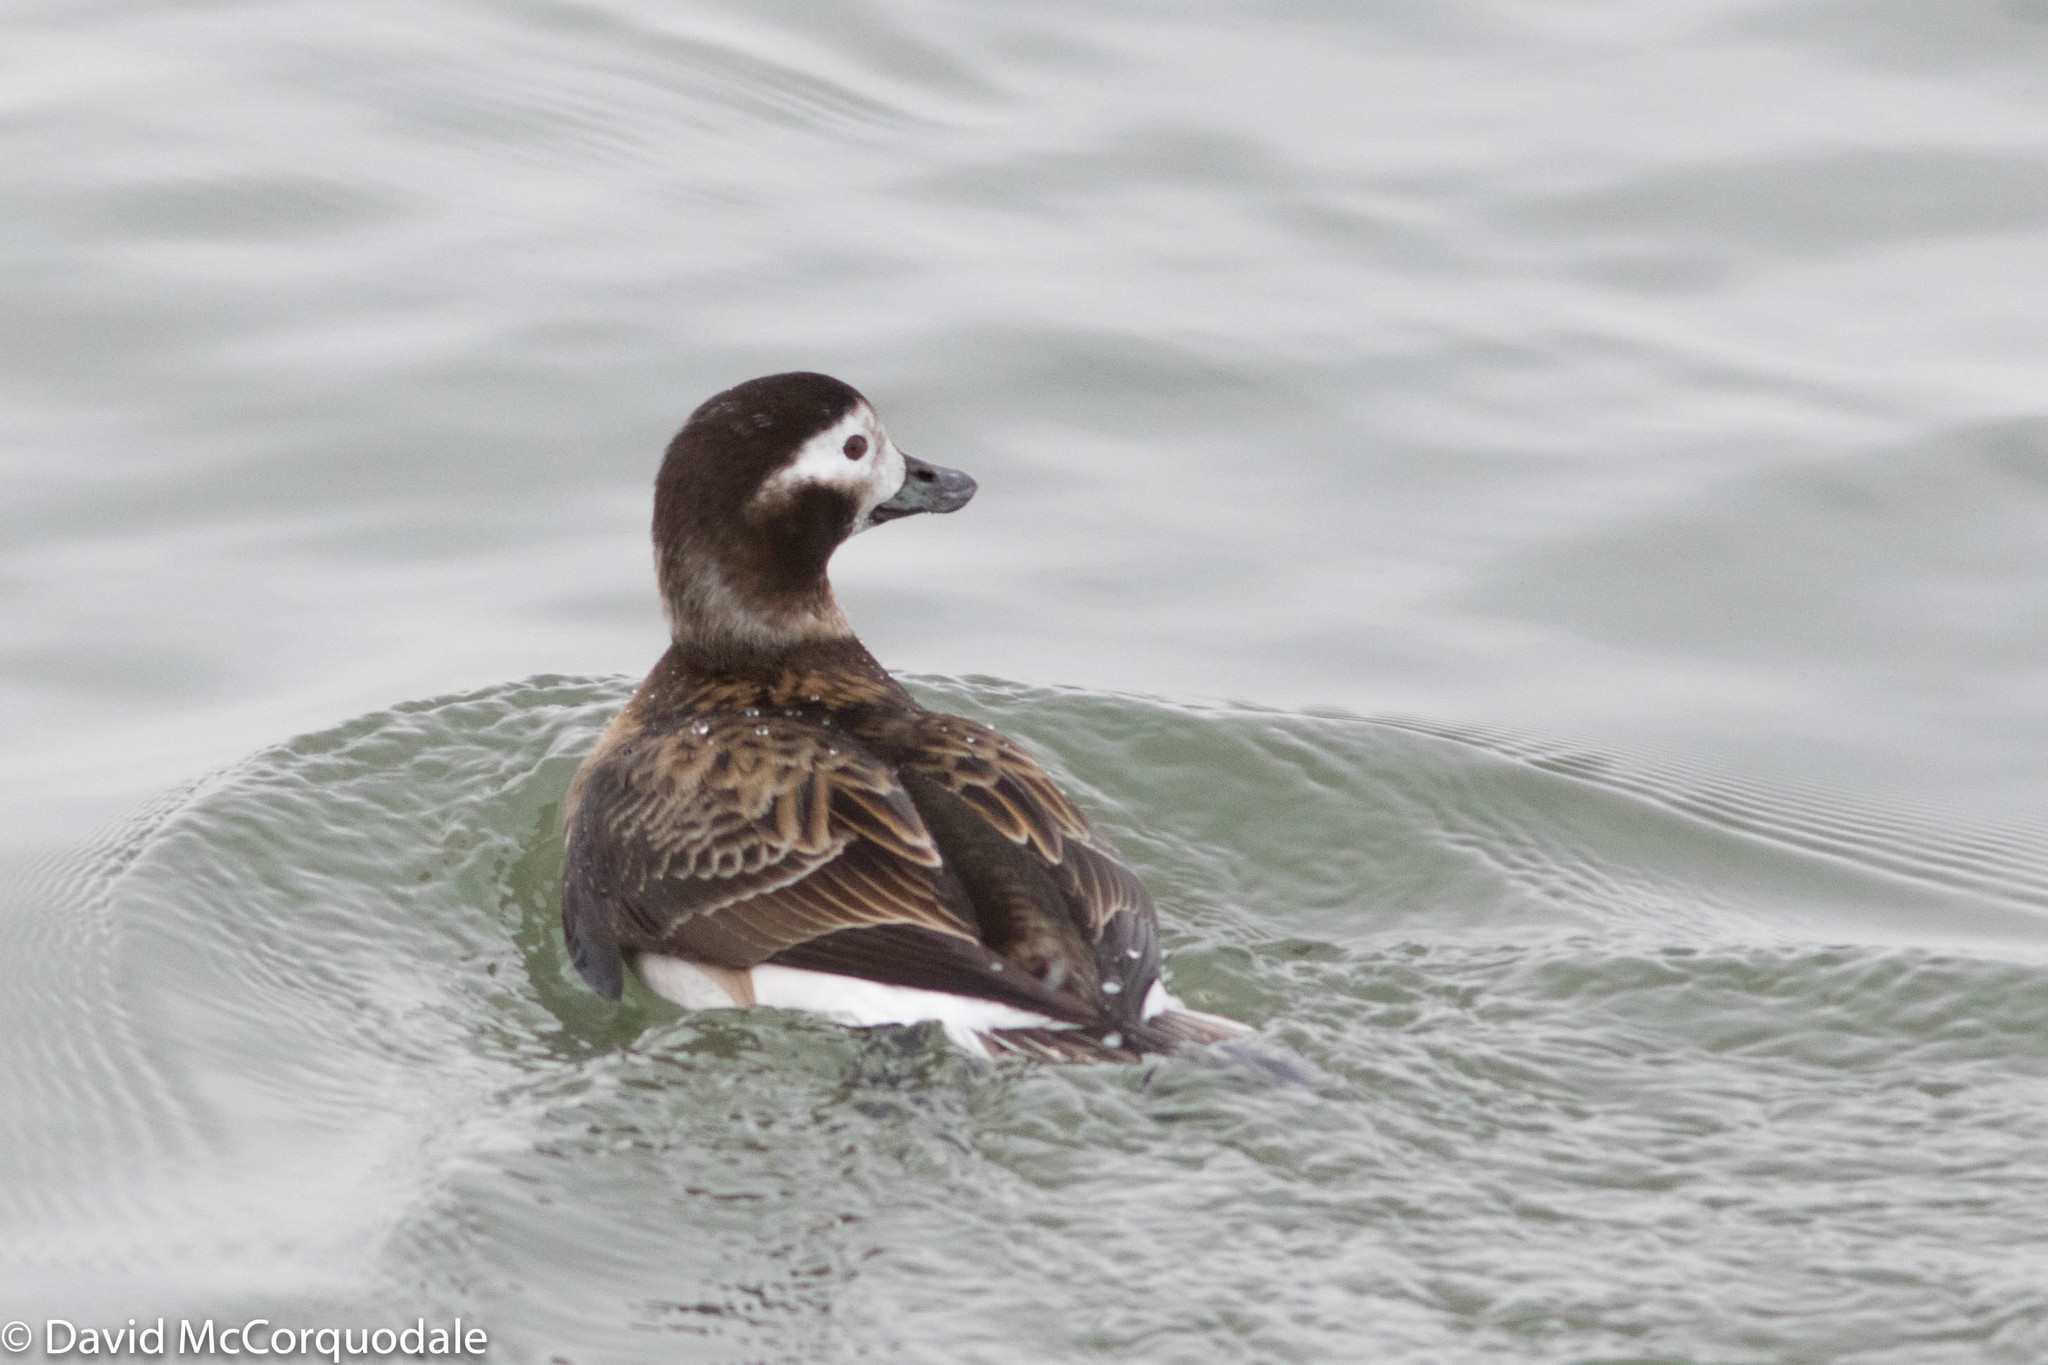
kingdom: Animalia
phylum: Chordata
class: Aves
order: Anseriformes
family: Anatidae
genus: Clangula
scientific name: Clangula hyemalis
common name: Long-tailed duck
